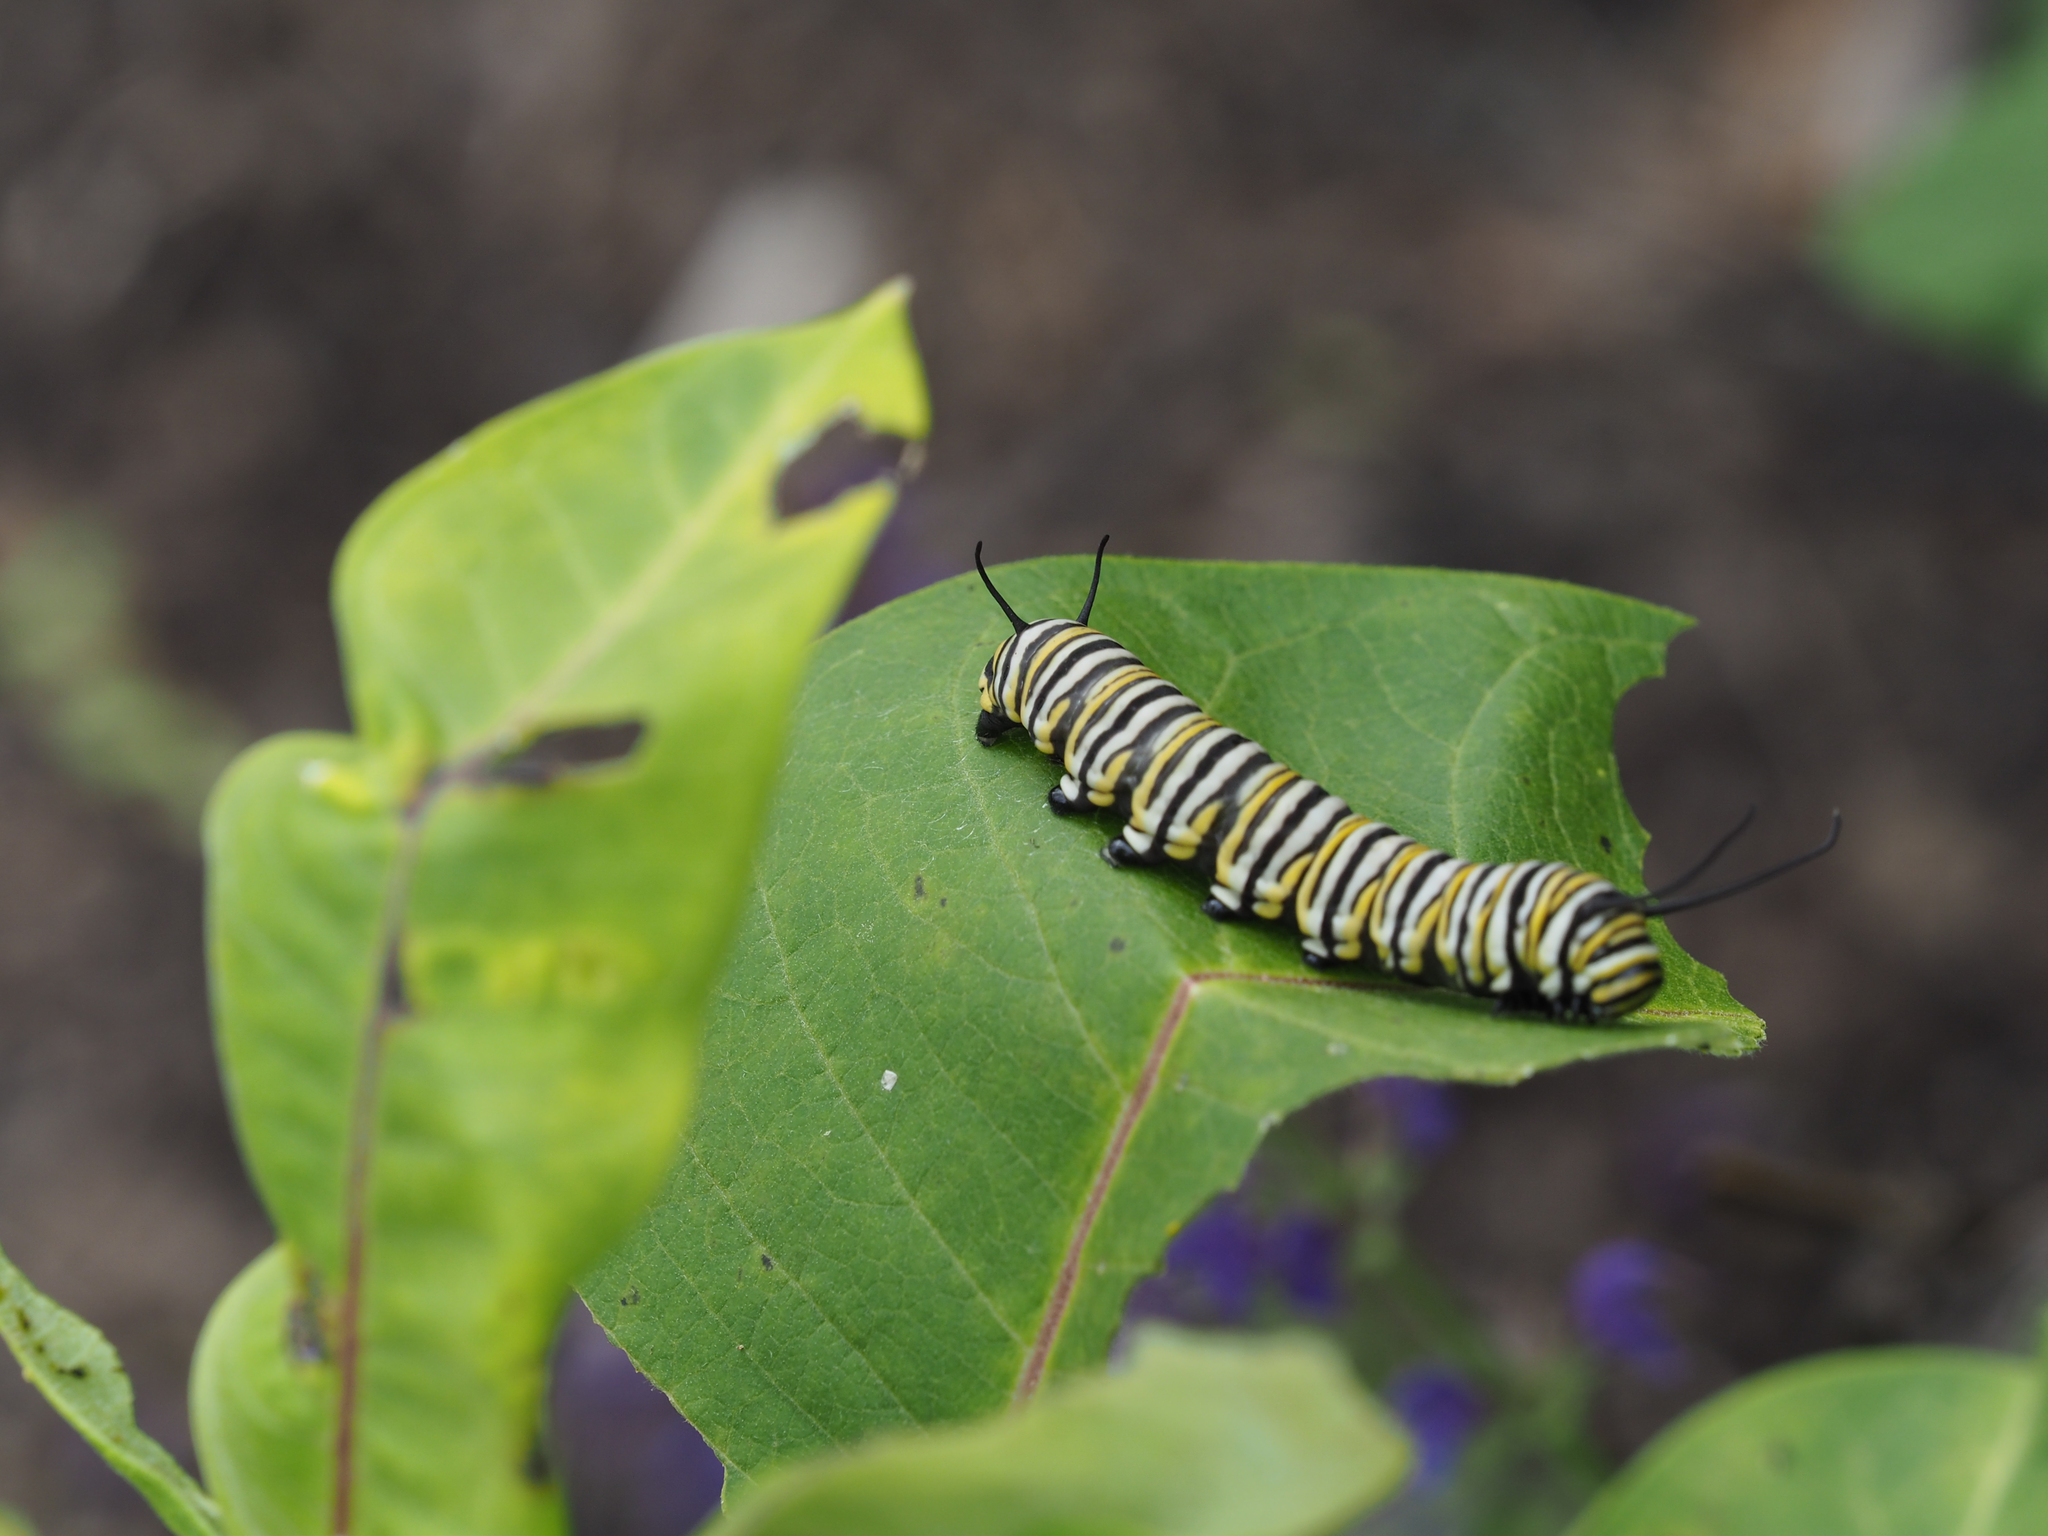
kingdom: Animalia
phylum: Arthropoda
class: Insecta
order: Lepidoptera
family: Nymphalidae
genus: Danaus
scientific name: Danaus plexippus
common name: Monarch
